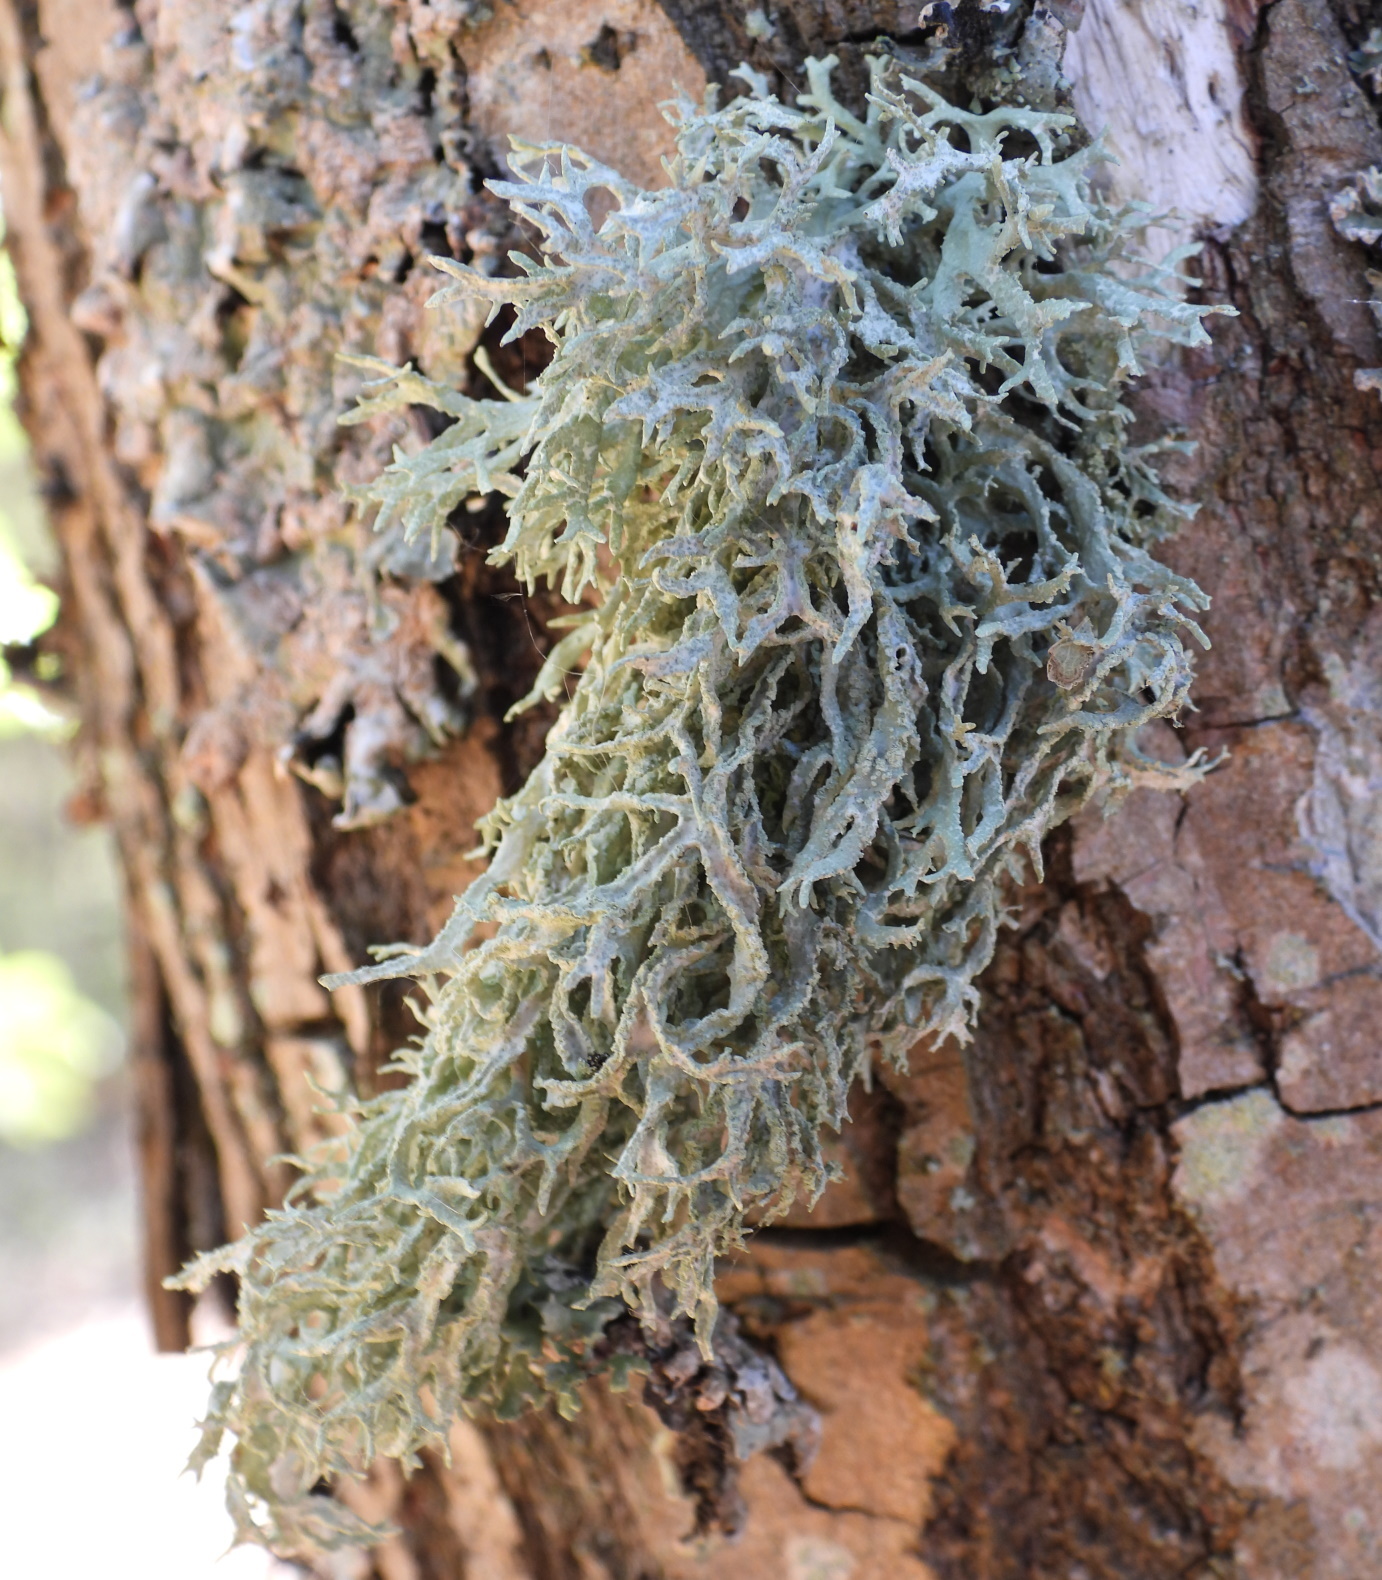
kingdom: Fungi
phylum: Ascomycota
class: Lecanoromycetes
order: Lecanorales
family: Parmeliaceae
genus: Evernia
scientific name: Evernia prunastri
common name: Oak moss
